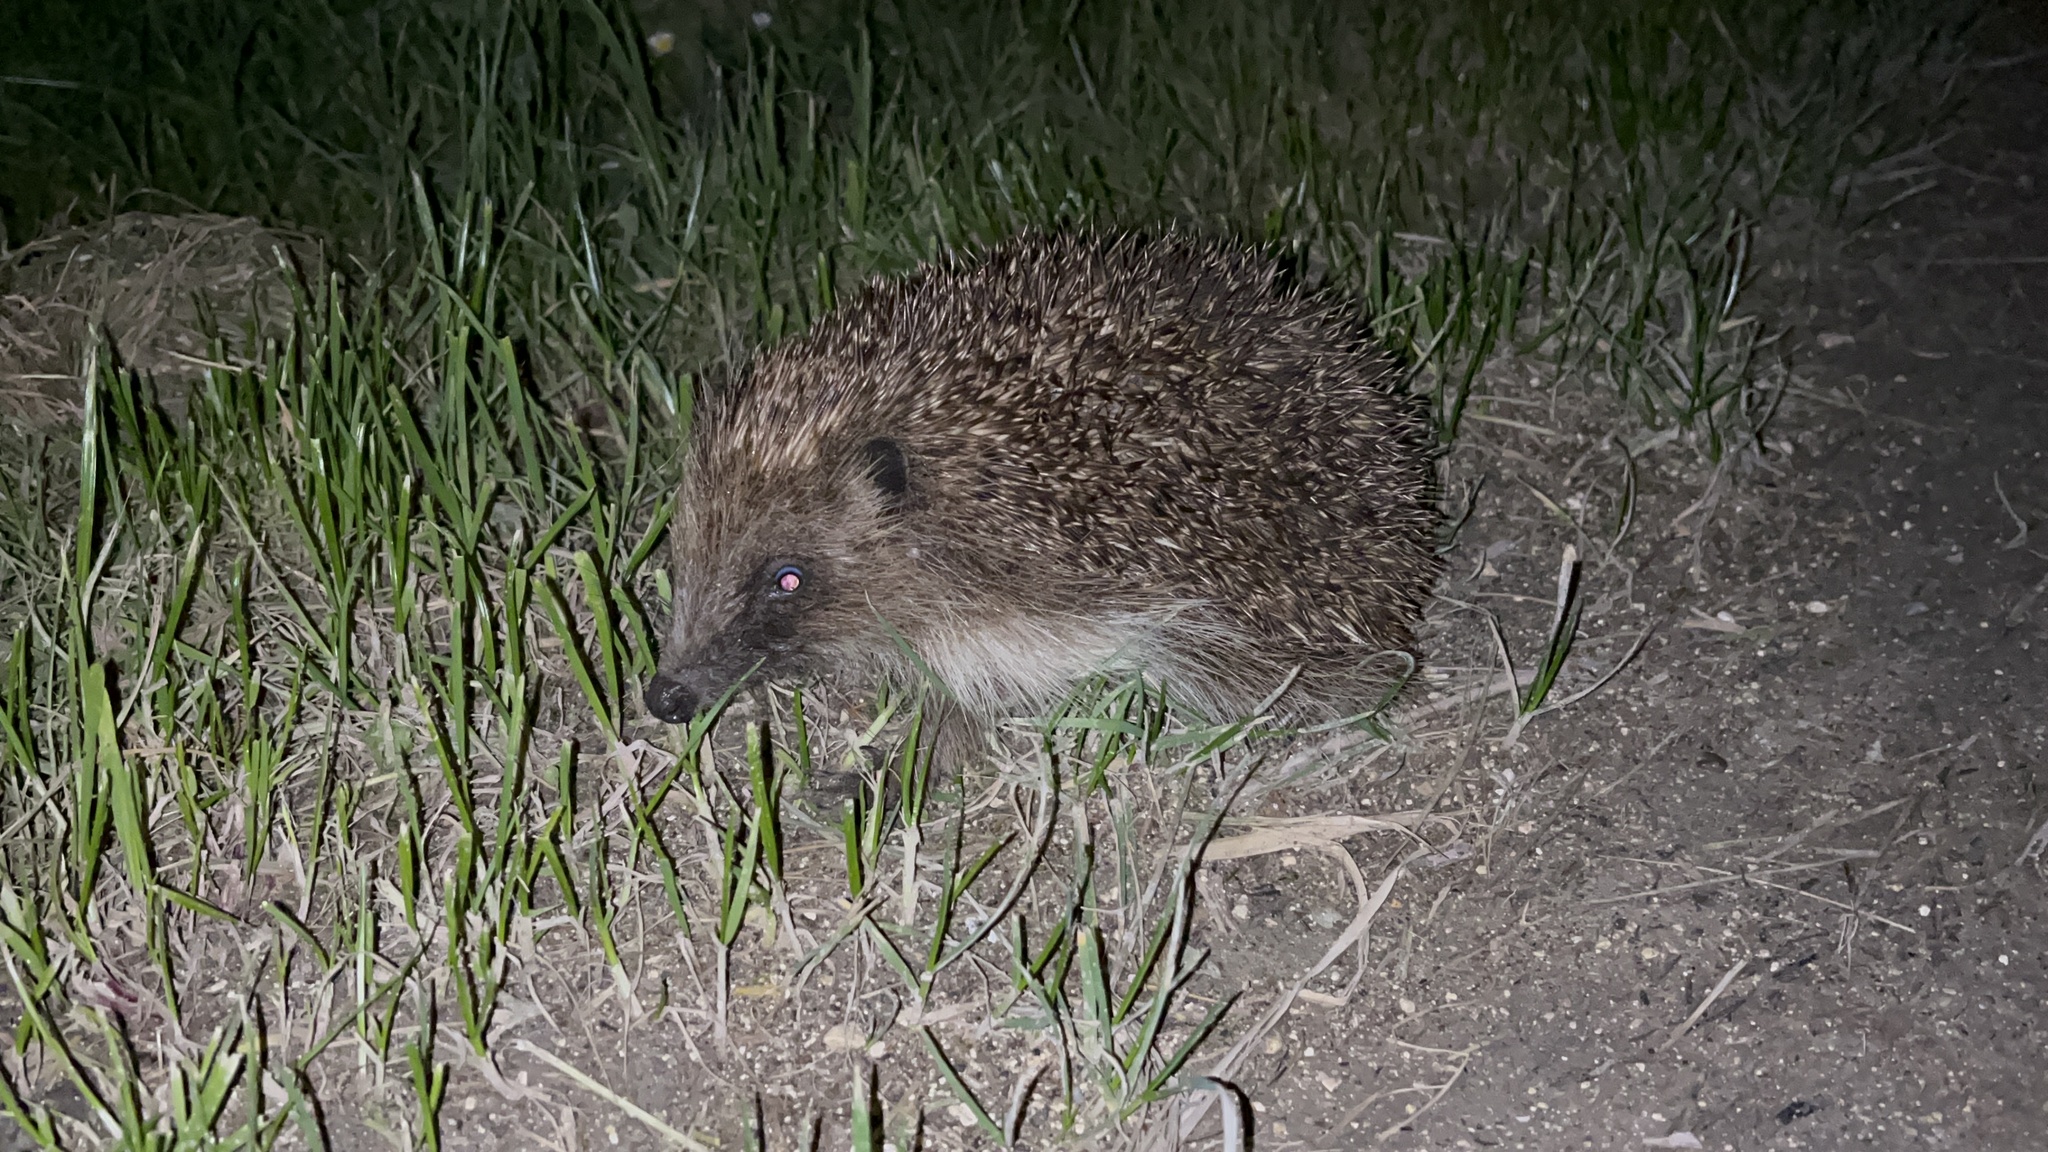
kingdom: Animalia
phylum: Chordata
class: Mammalia
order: Erinaceomorpha
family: Erinaceidae
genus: Erinaceus
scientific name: Erinaceus europaeus
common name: West european hedgehog
